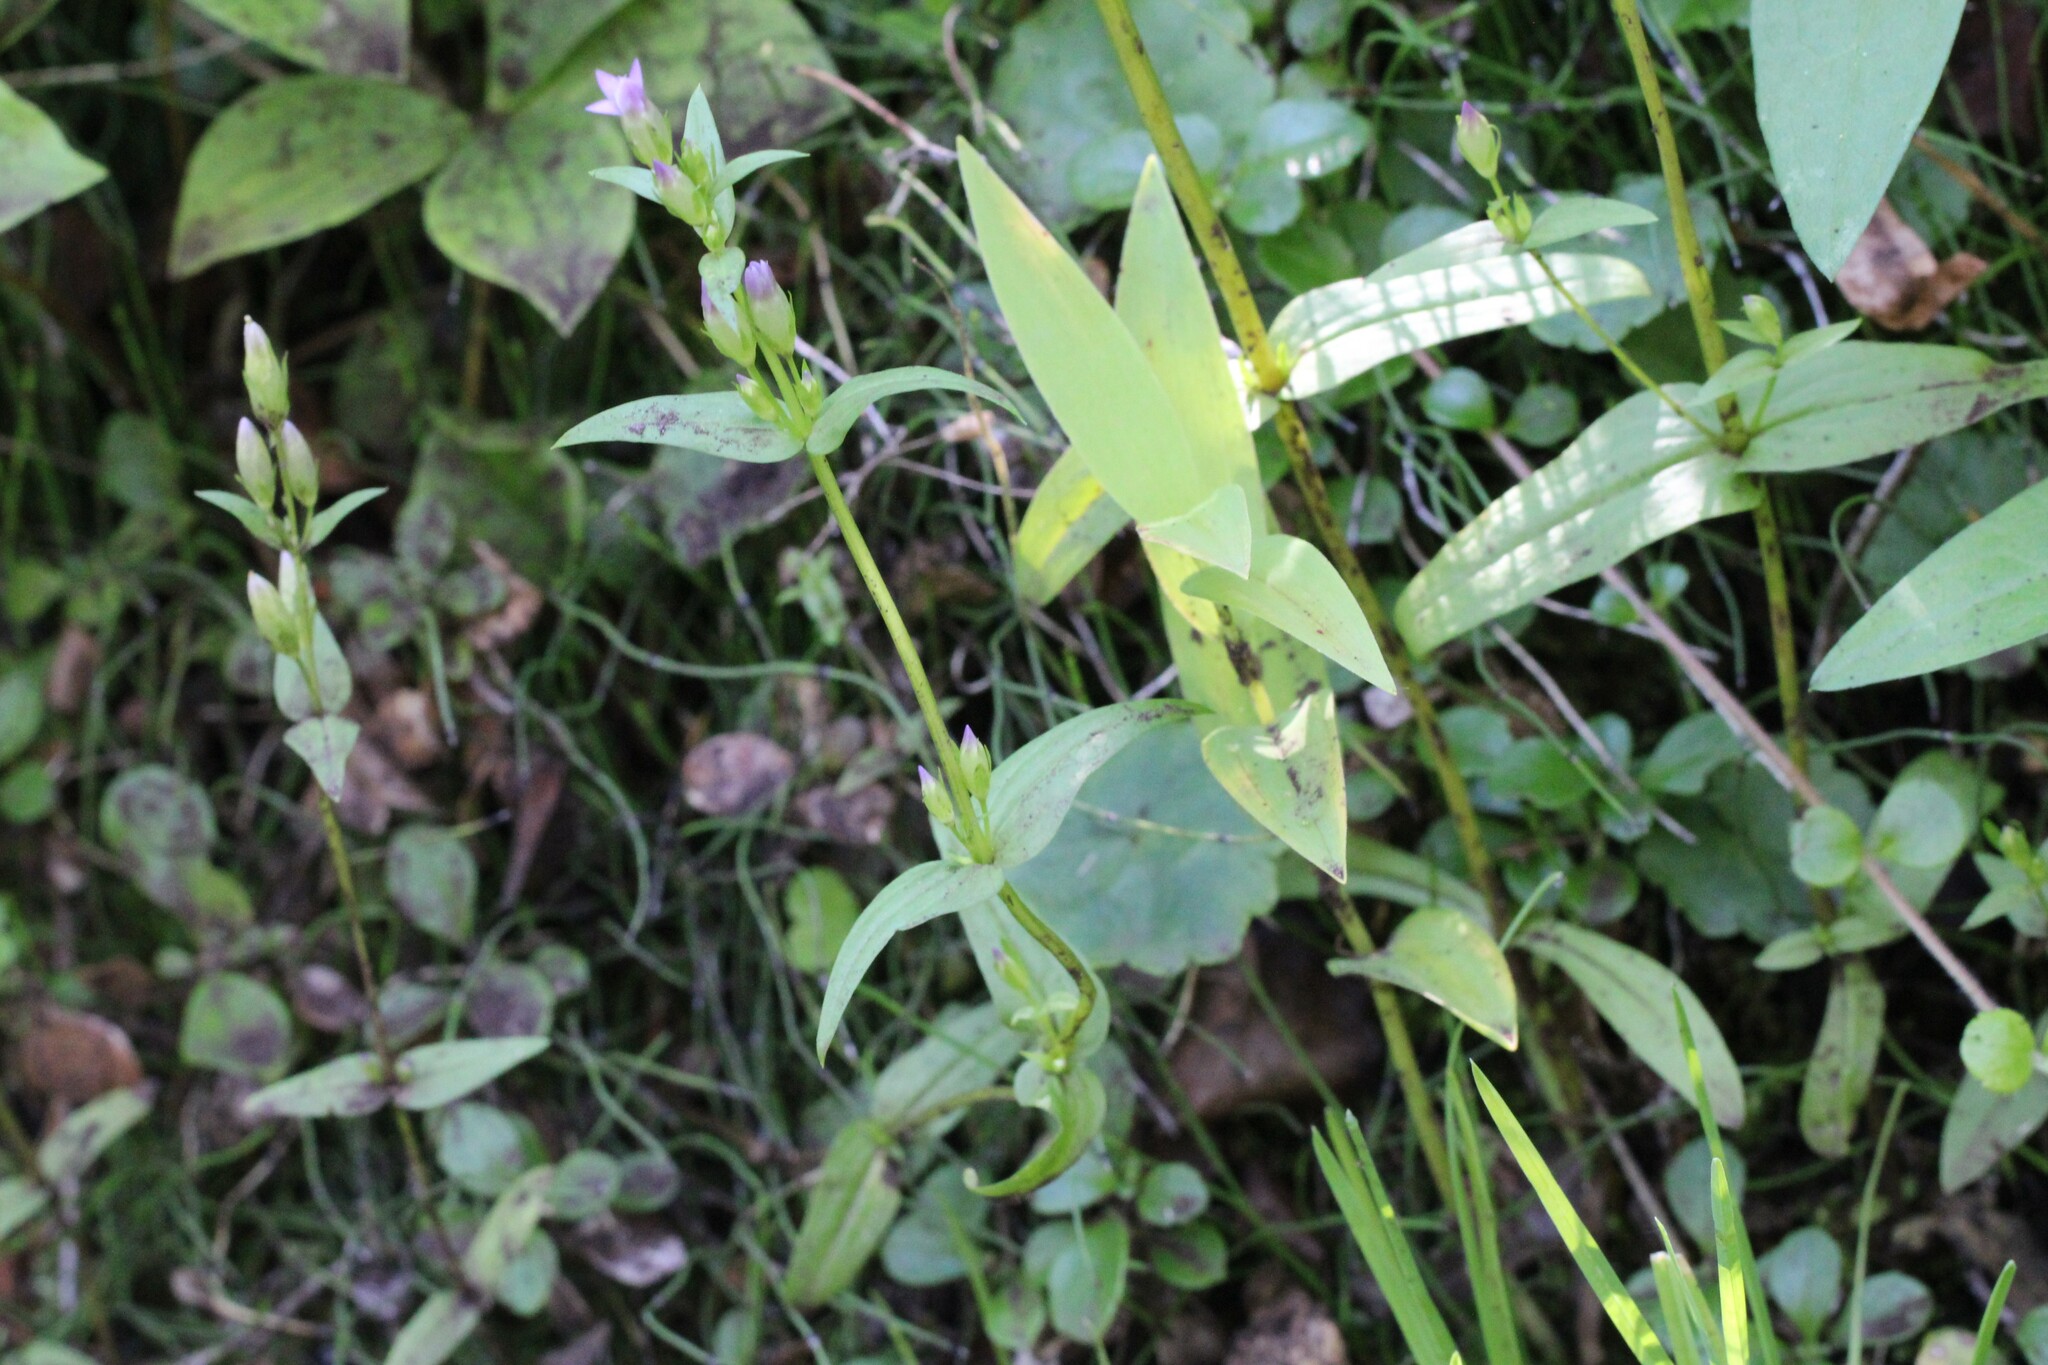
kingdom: Plantae
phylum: Tracheophyta
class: Magnoliopsida
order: Gentianales
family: Gentianaceae
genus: Gentianella
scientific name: Gentianella amarella
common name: Autumn gentian
